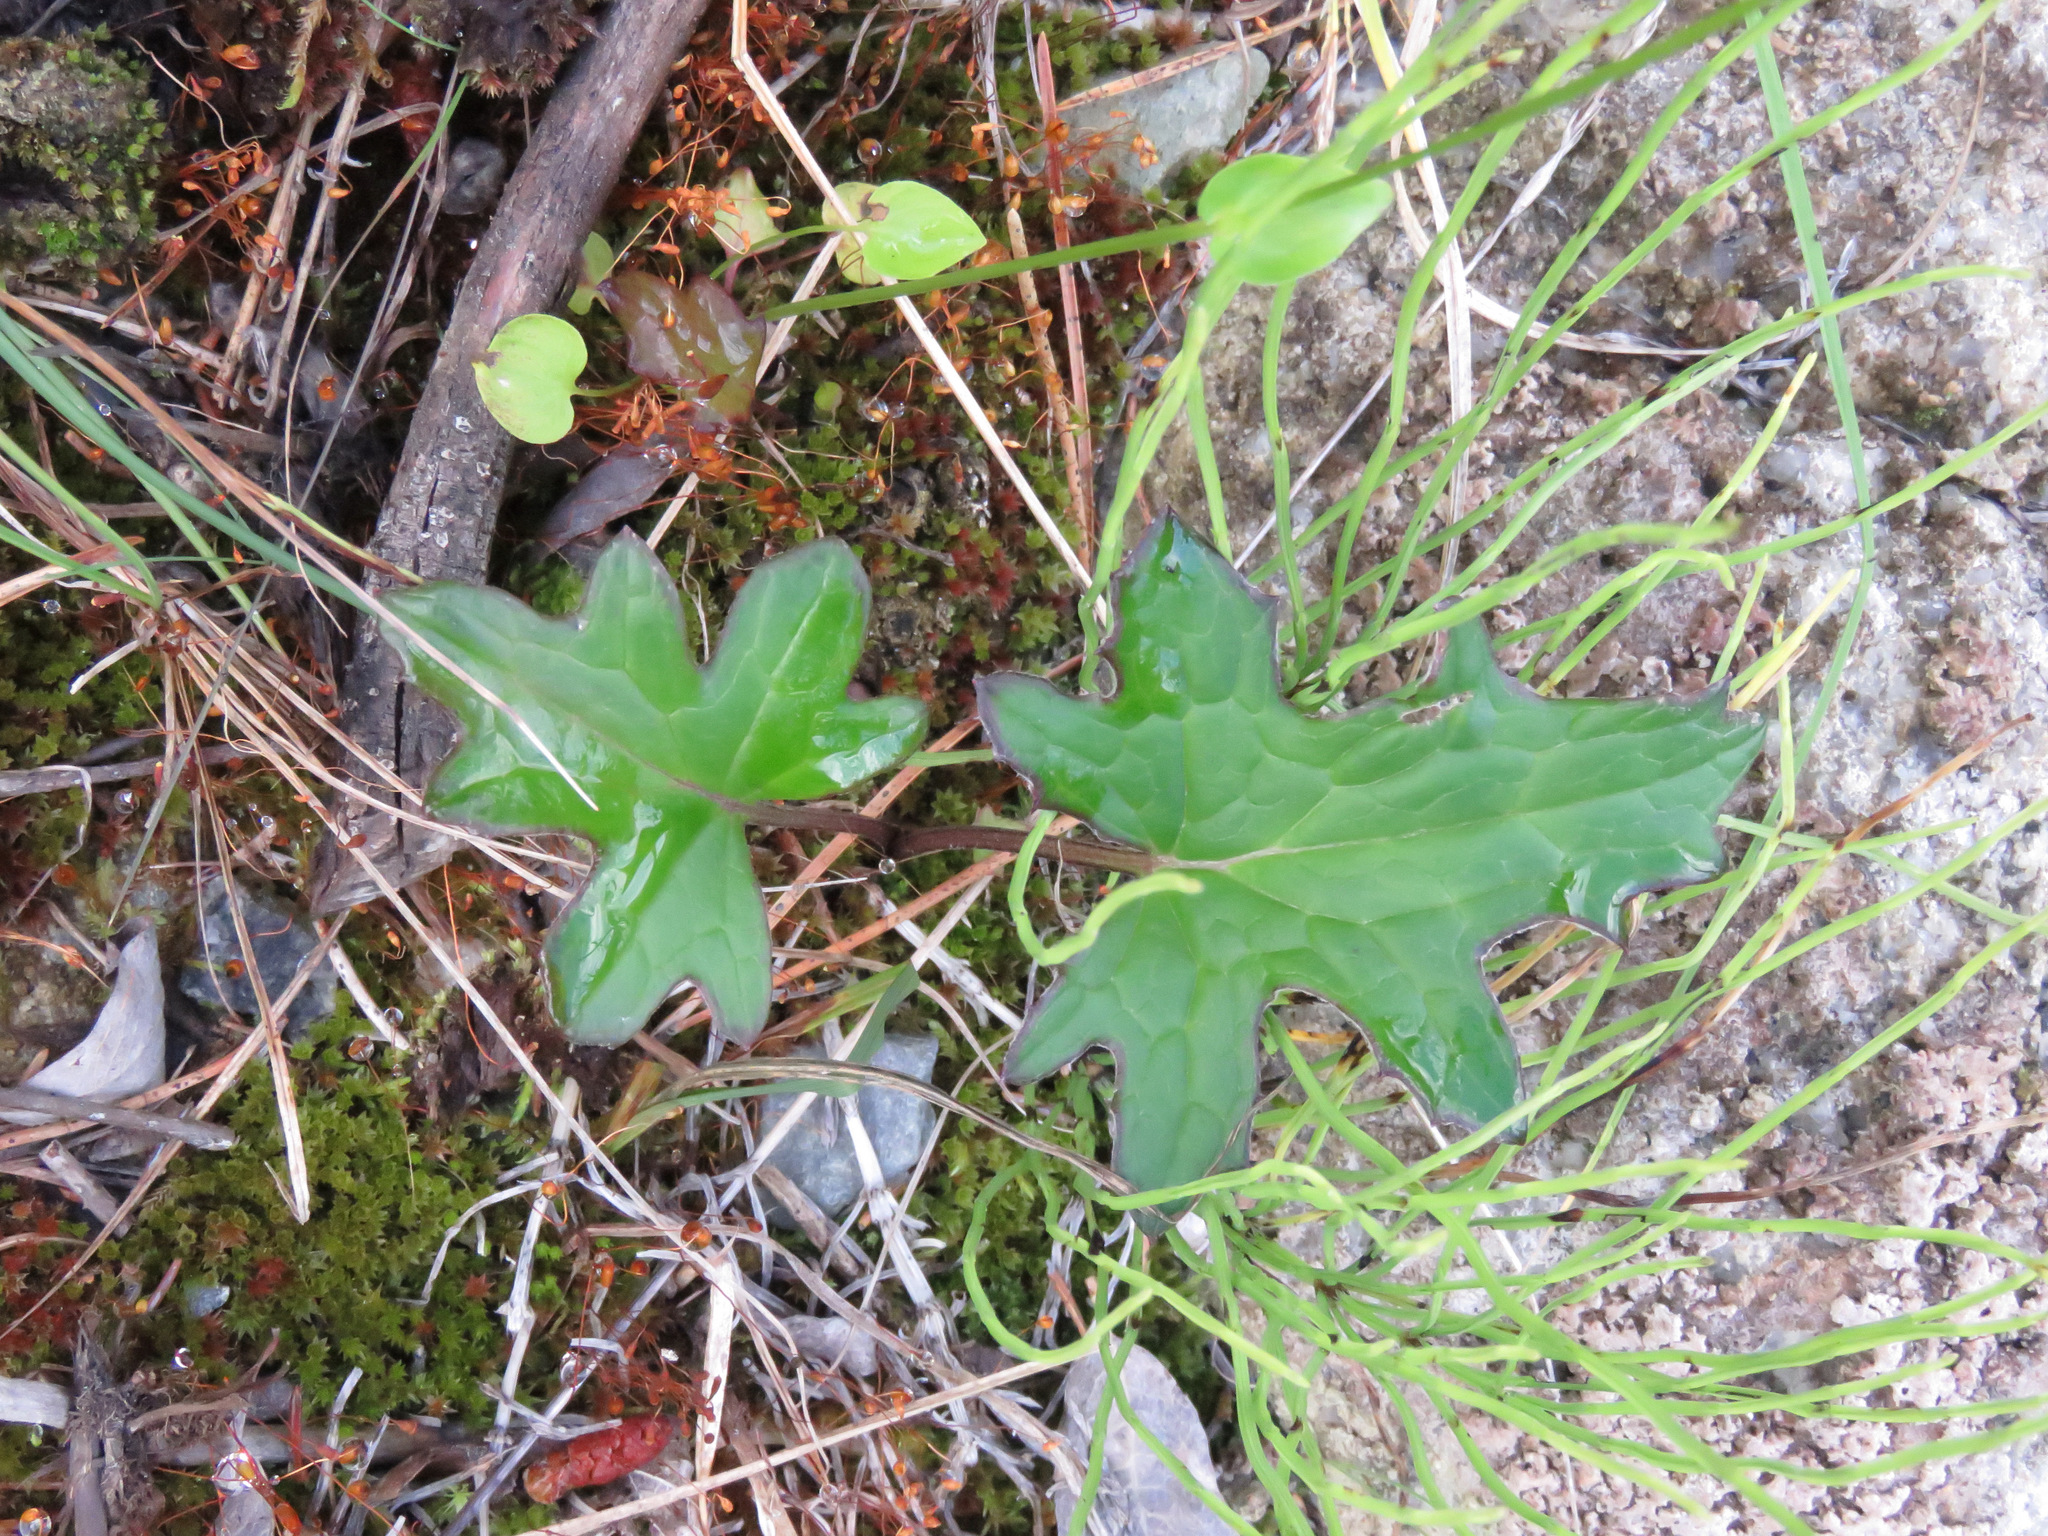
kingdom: Plantae
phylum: Tracheophyta
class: Magnoliopsida
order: Asterales
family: Asteraceae
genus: Petasites
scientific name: Petasites frigidus
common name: Arctic butterbur
